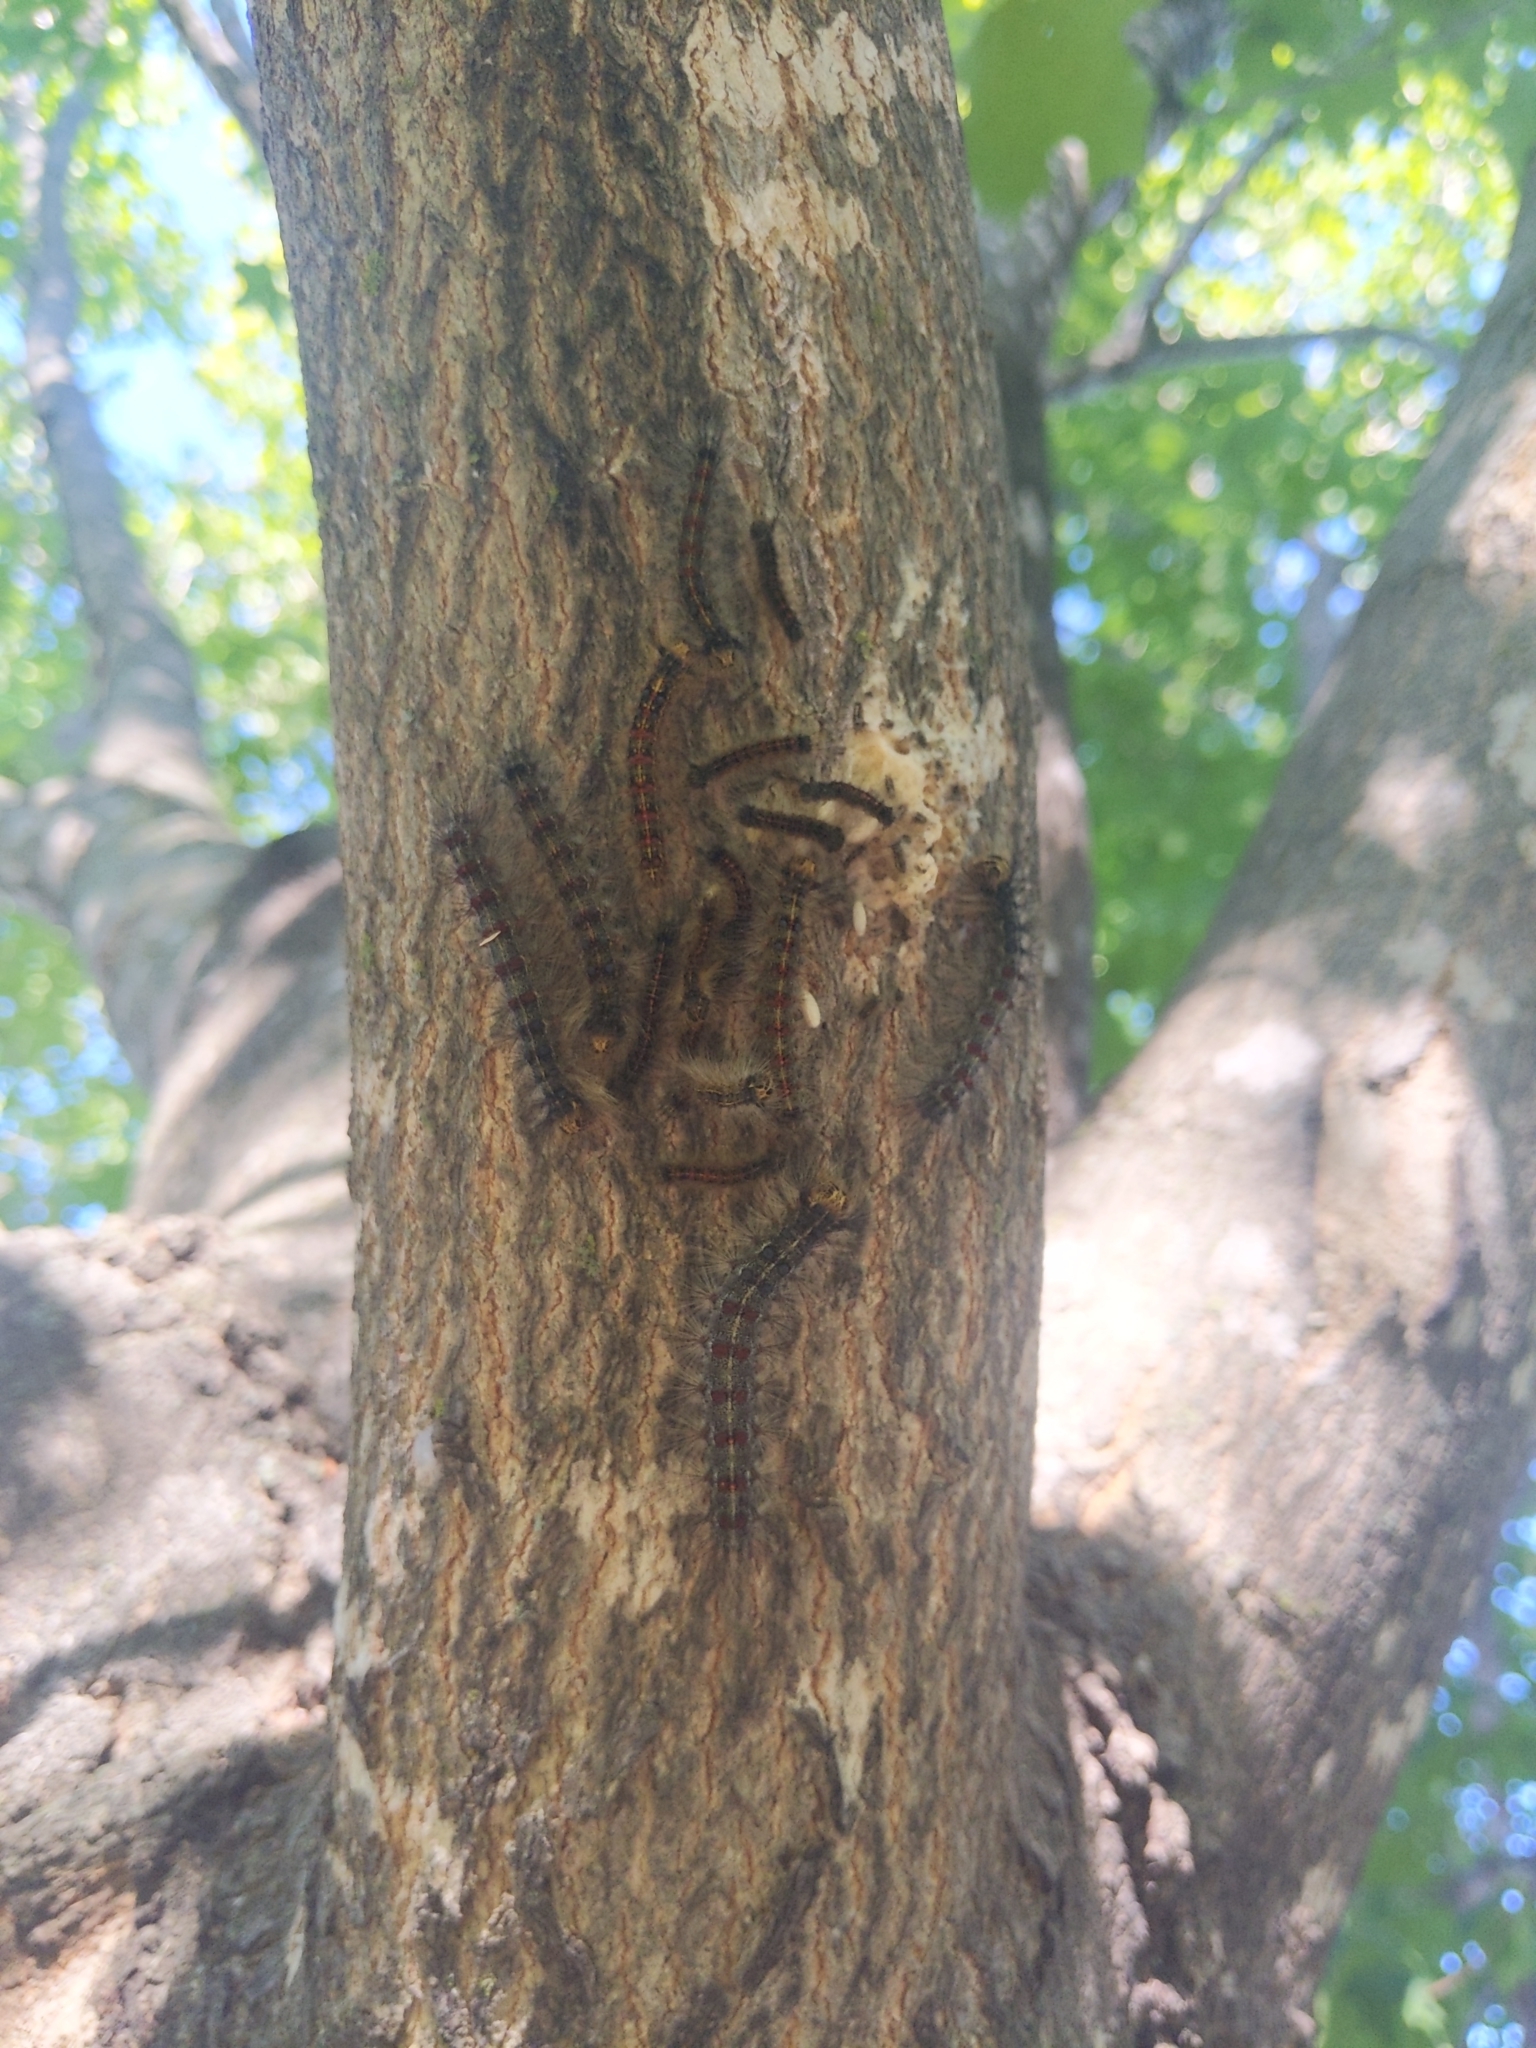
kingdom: Animalia
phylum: Arthropoda
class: Insecta
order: Lepidoptera
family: Erebidae
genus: Lymantria
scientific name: Lymantria dispar
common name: Gypsy moth
